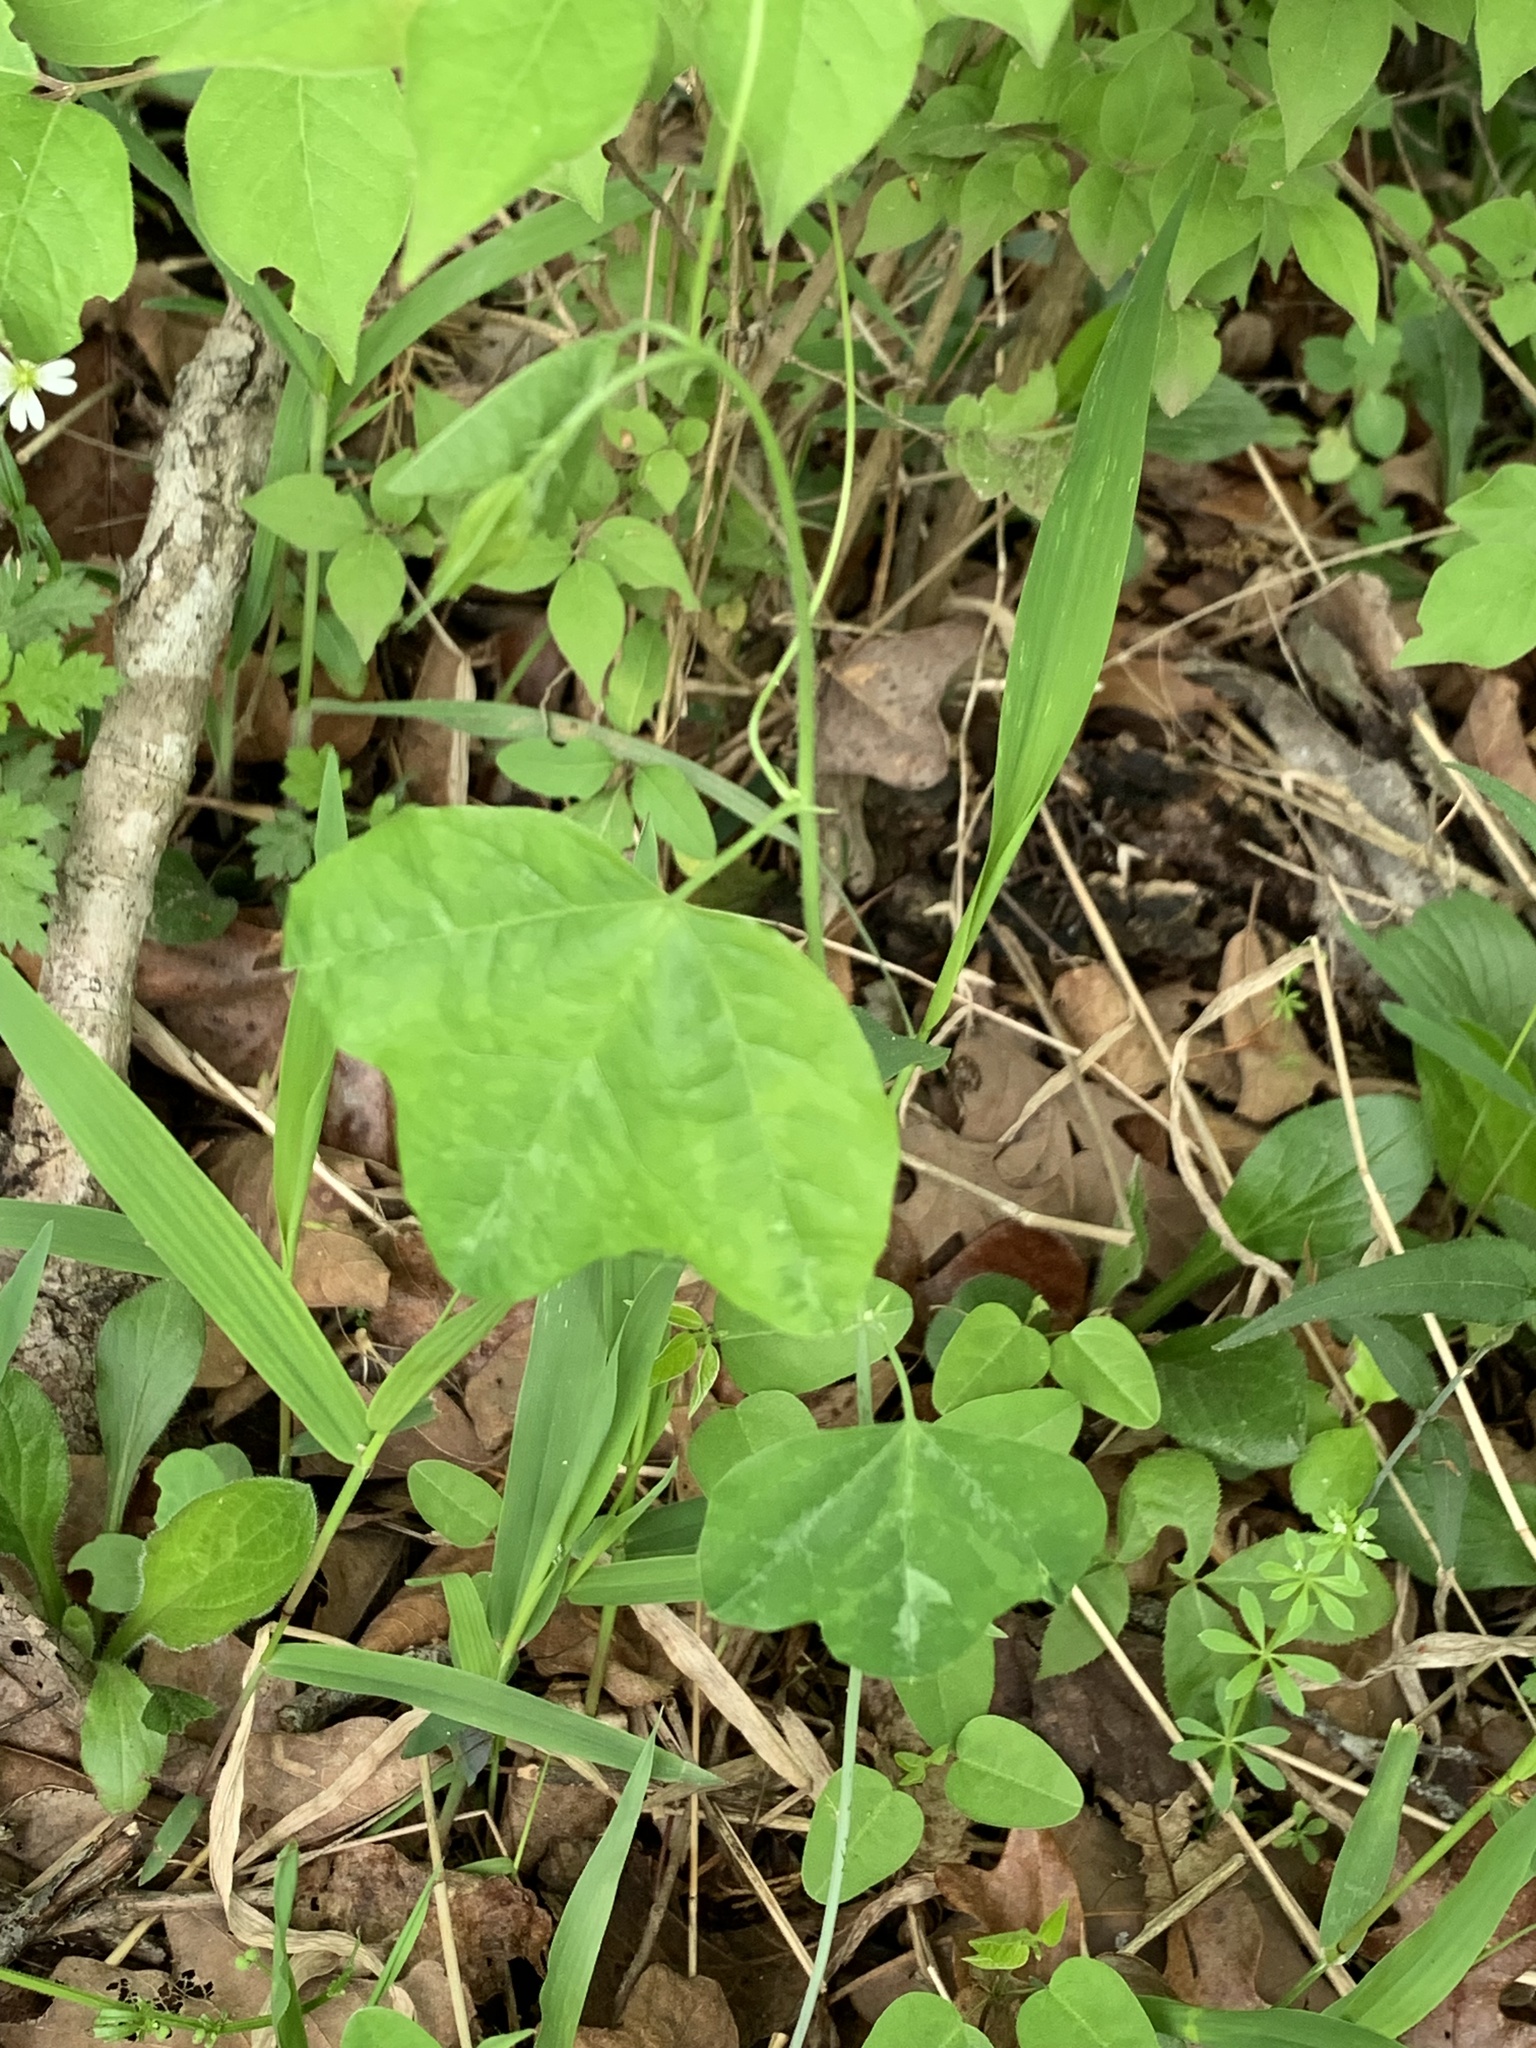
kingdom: Plantae
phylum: Tracheophyta
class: Magnoliopsida
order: Malpighiales
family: Passifloraceae
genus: Passiflora
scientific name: Passiflora lutea
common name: Yellow passionflower
